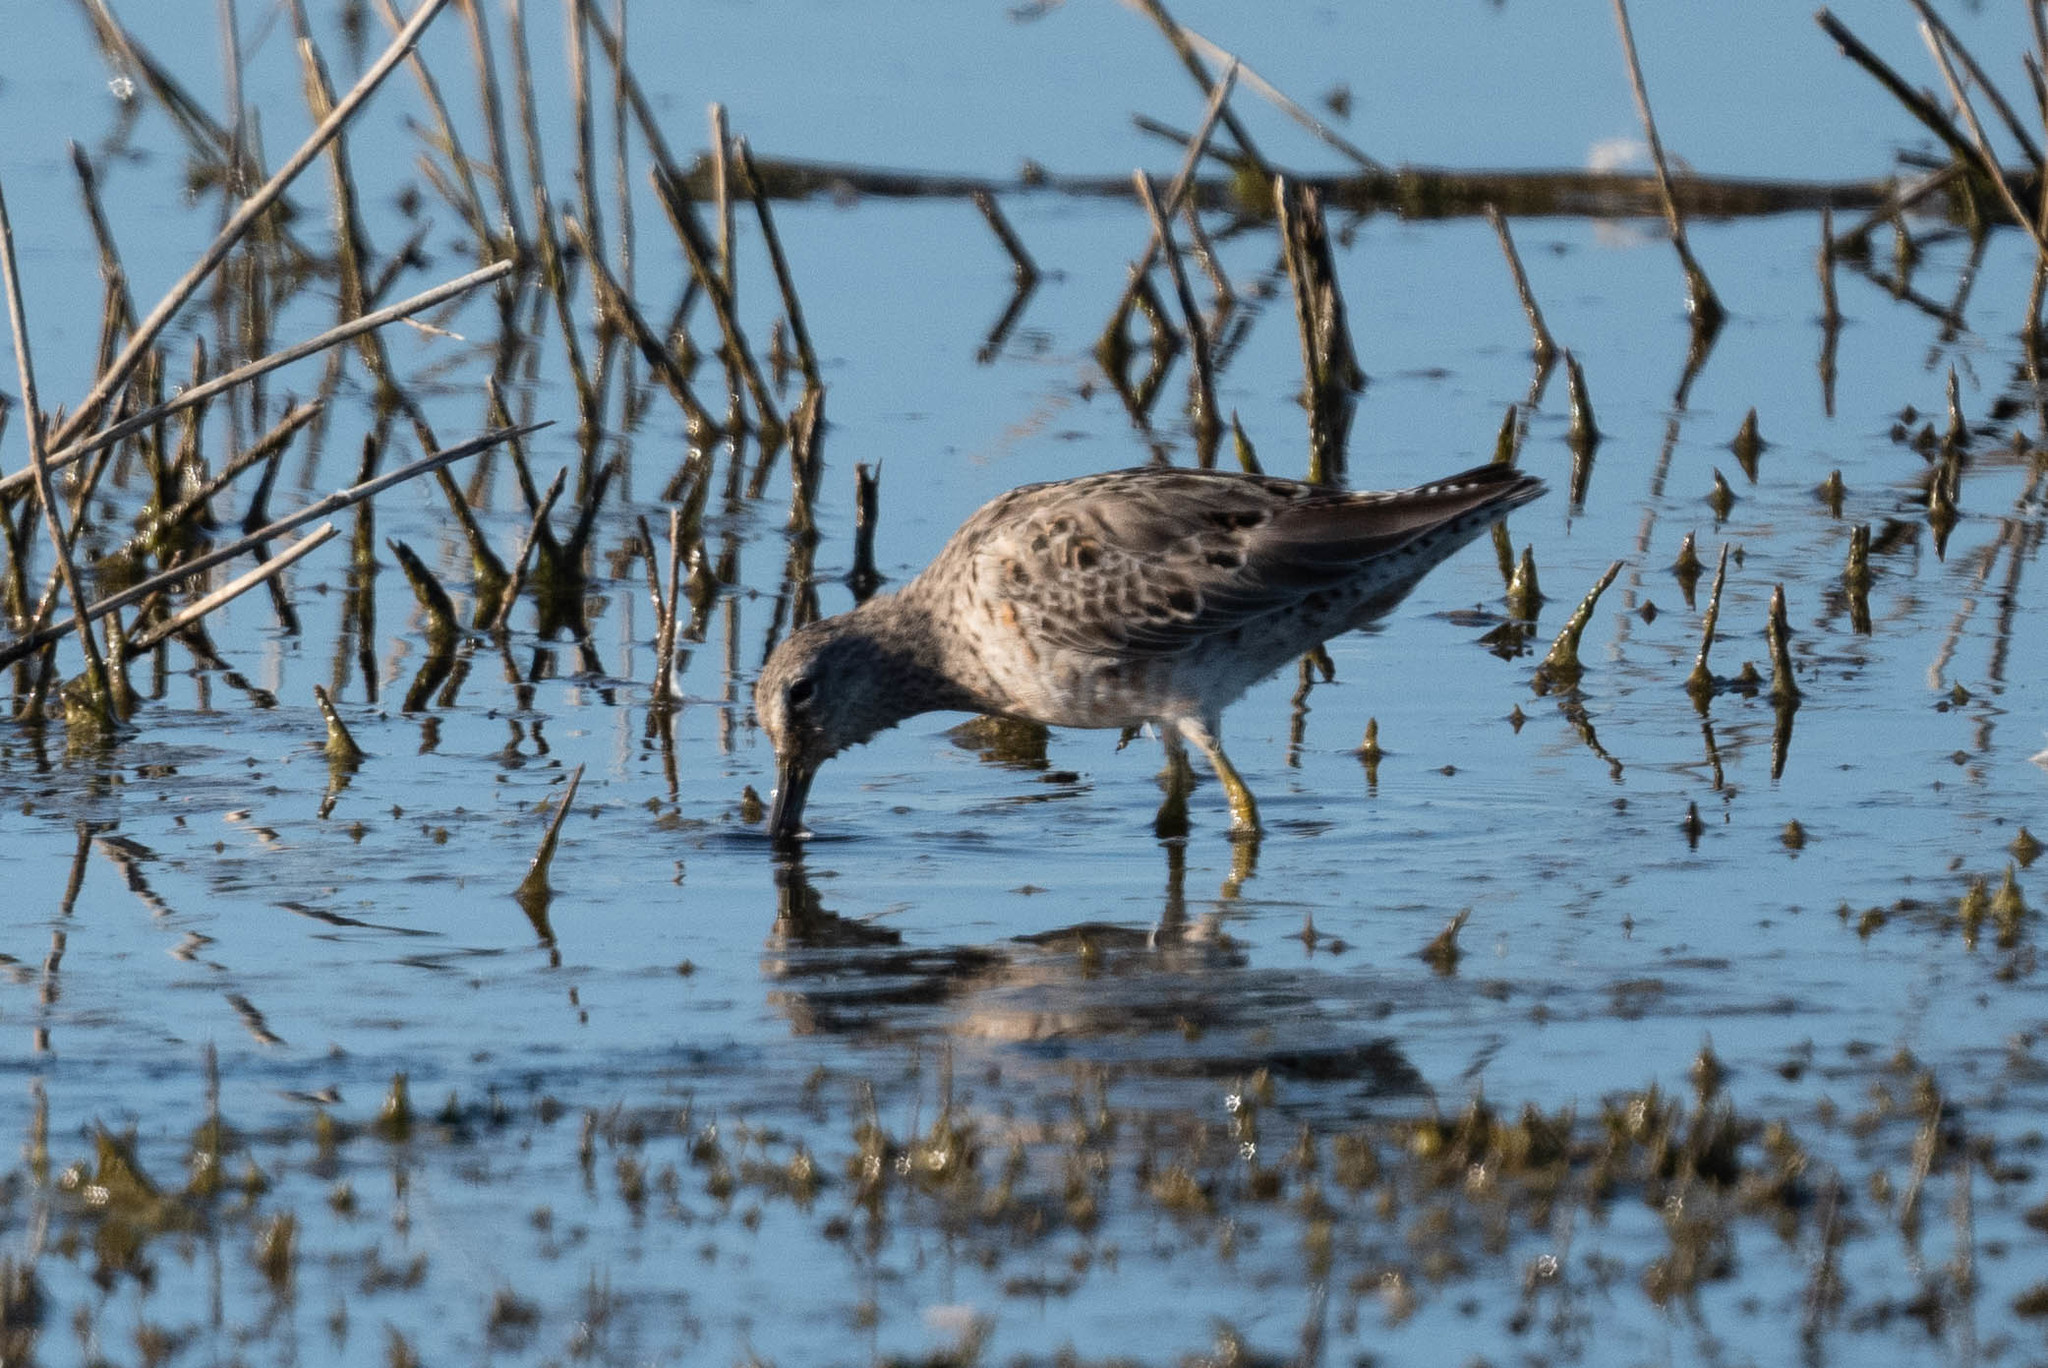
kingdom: Animalia
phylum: Chordata
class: Aves
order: Charadriiformes
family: Scolopacidae
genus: Limnodromus
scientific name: Limnodromus scolopaceus
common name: Long-billed dowitcher
